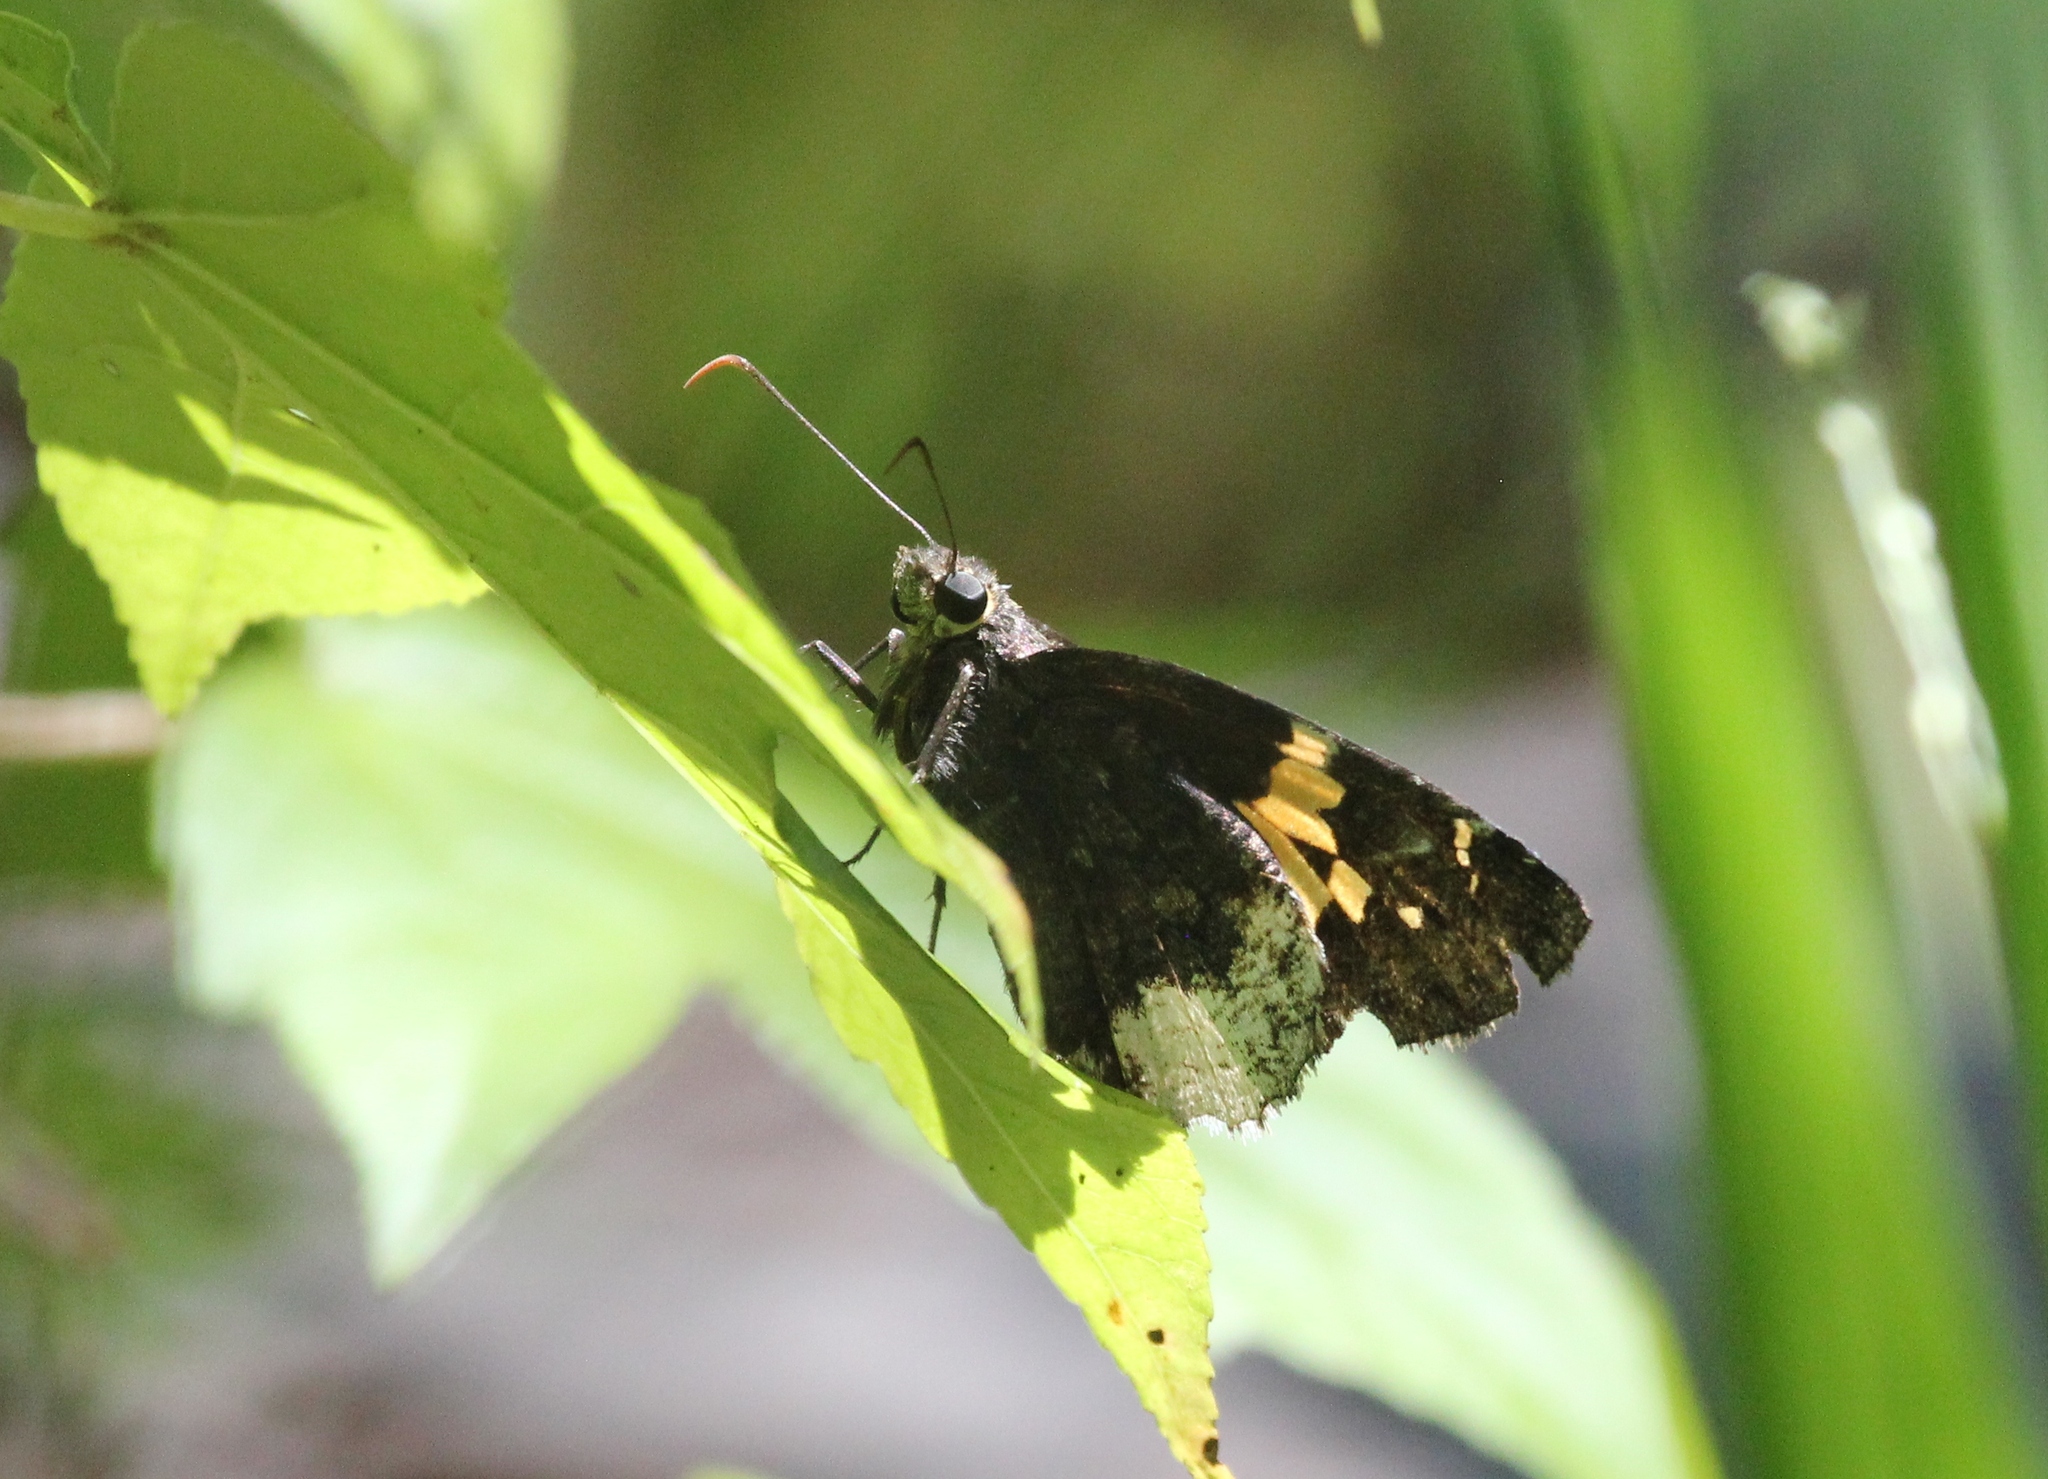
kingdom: Animalia
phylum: Arthropoda
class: Insecta
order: Lepidoptera
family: Hesperiidae
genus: Thorybes
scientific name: Thorybes lyciades
